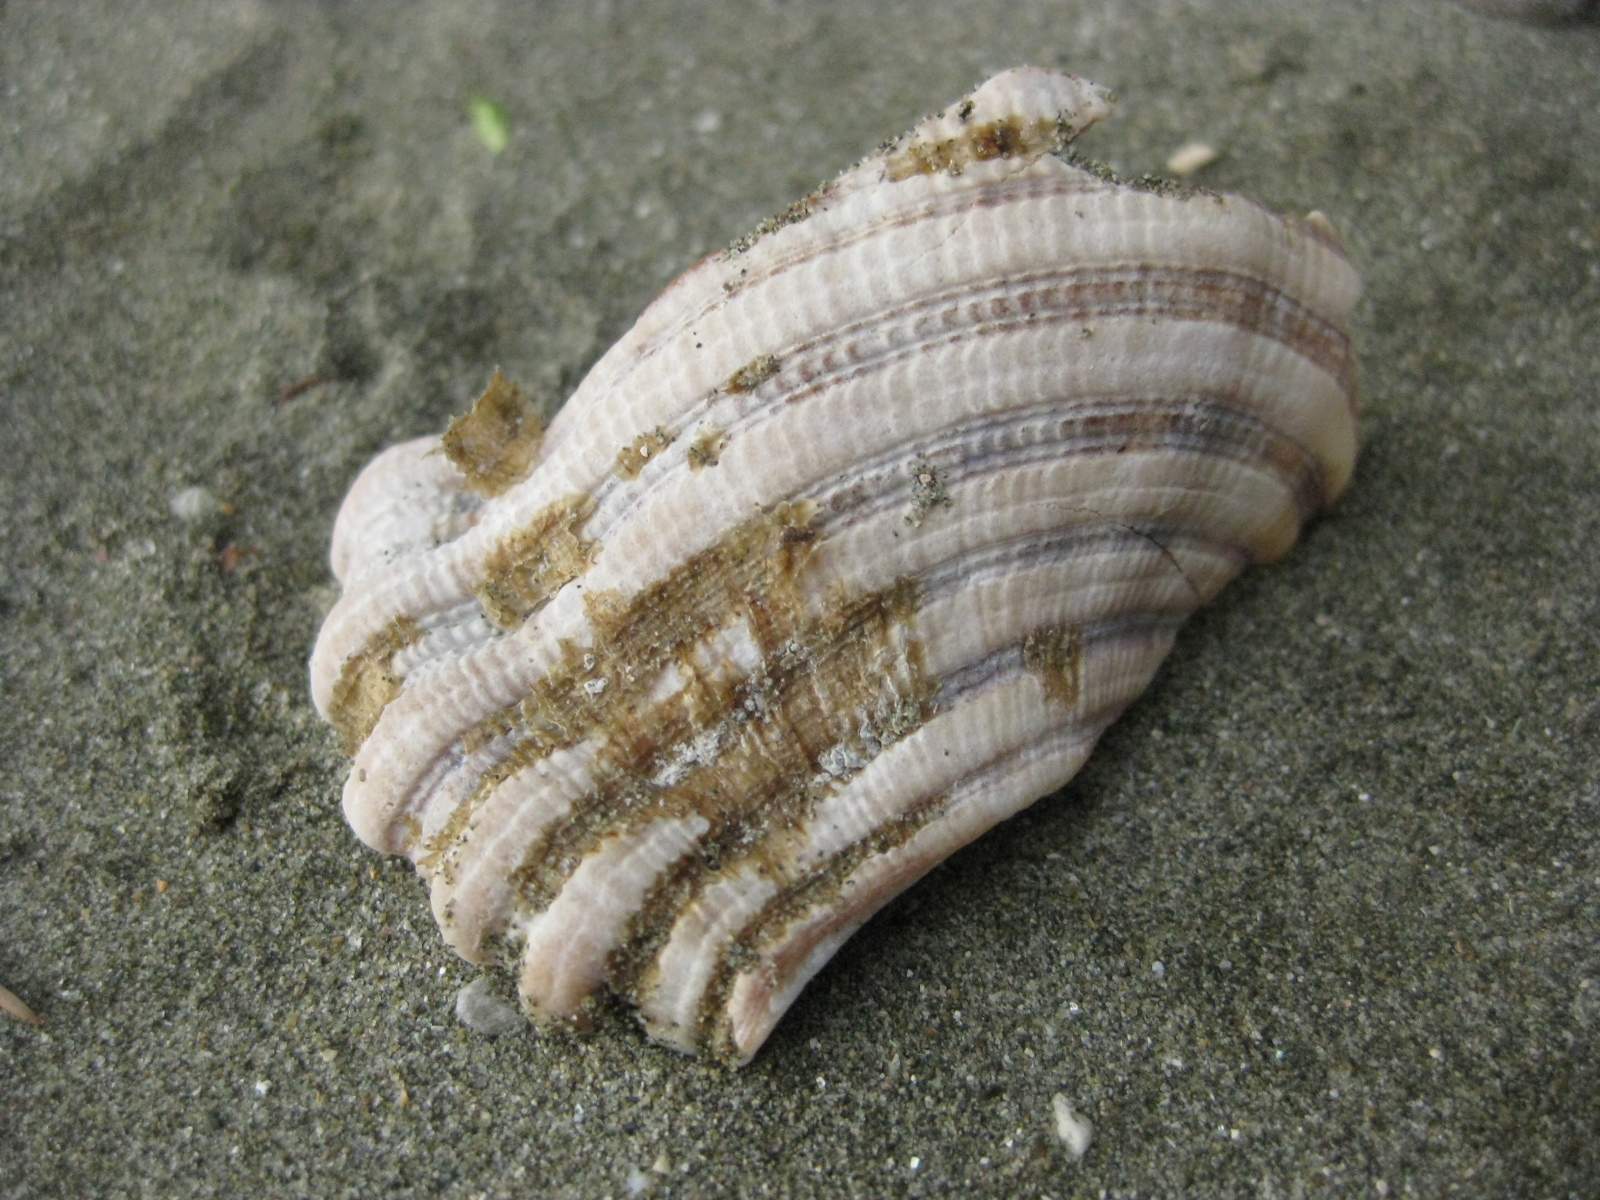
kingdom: Animalia
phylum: Mollusca
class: Gastropoda
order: Littorinimorpha
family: Cymatiidae
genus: Cabestana
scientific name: Cabestana spengleri
